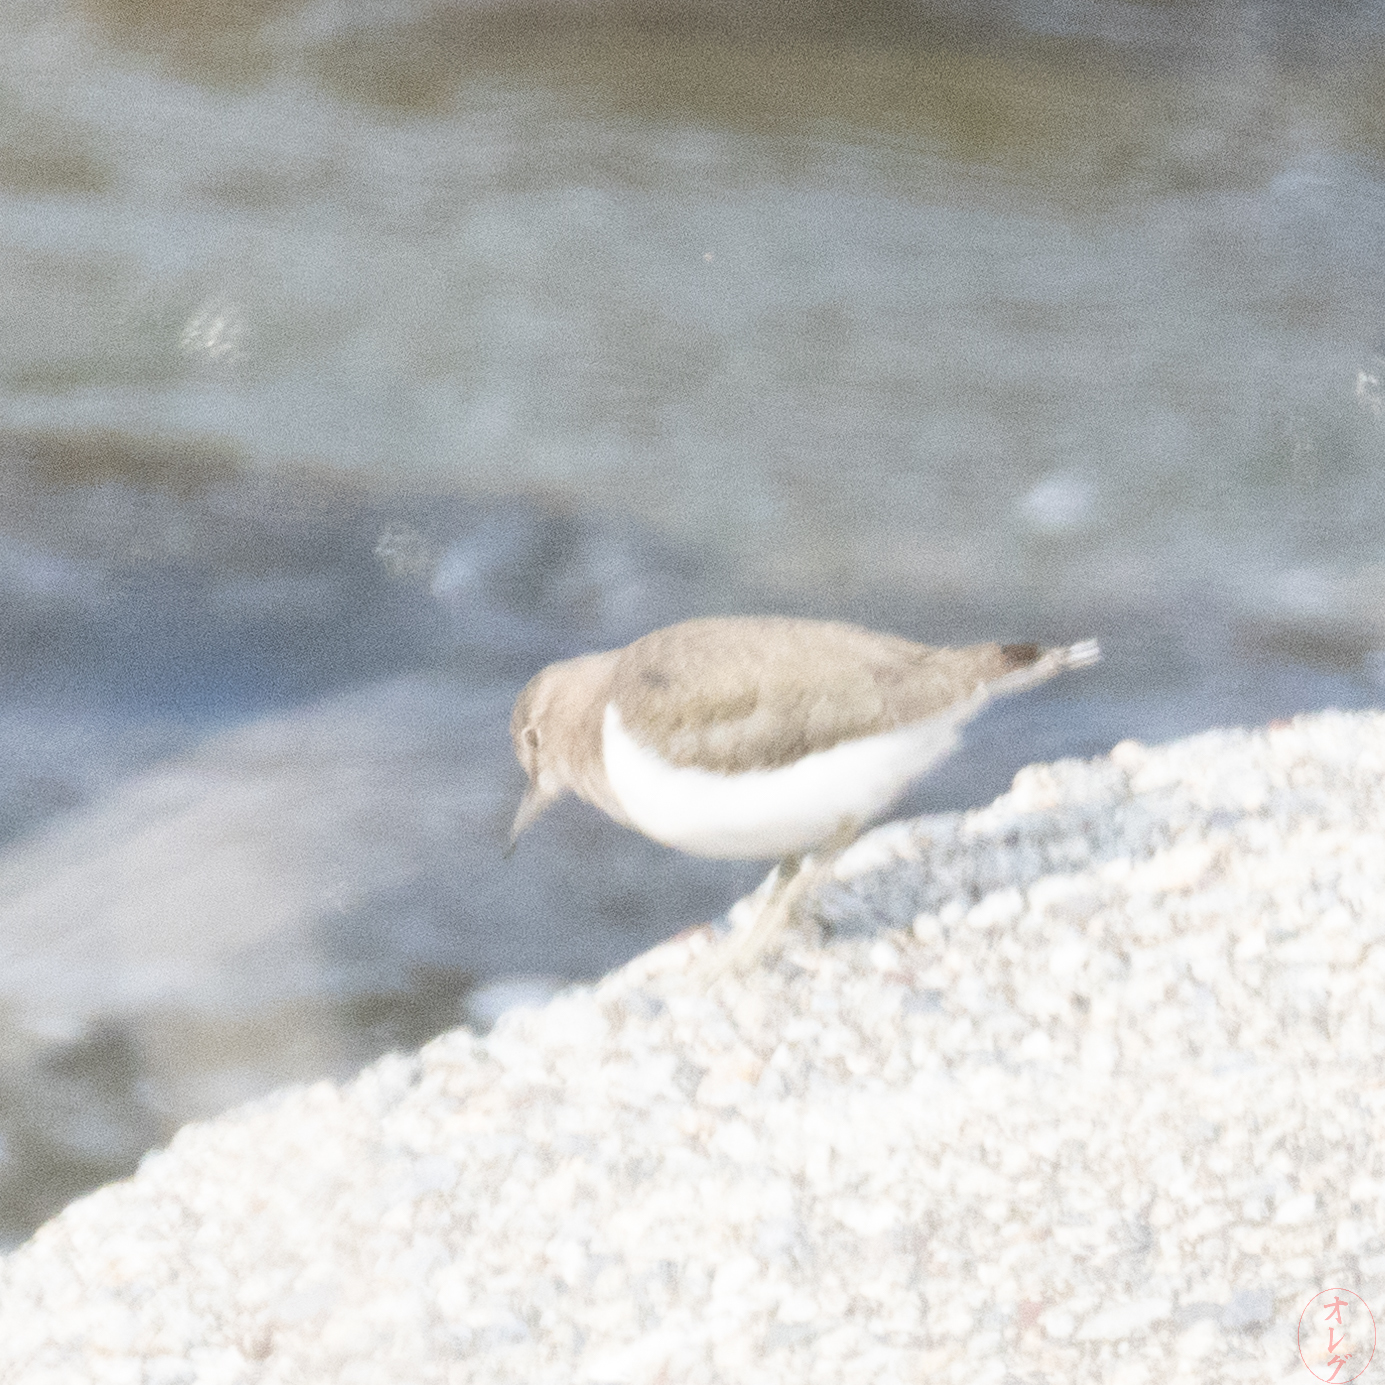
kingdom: Animalia
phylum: Chordata
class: Aves
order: Charadriiformes
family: Scolopacidae
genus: Actitis
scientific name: Actitis hypoleucos
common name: Common sandpiper
